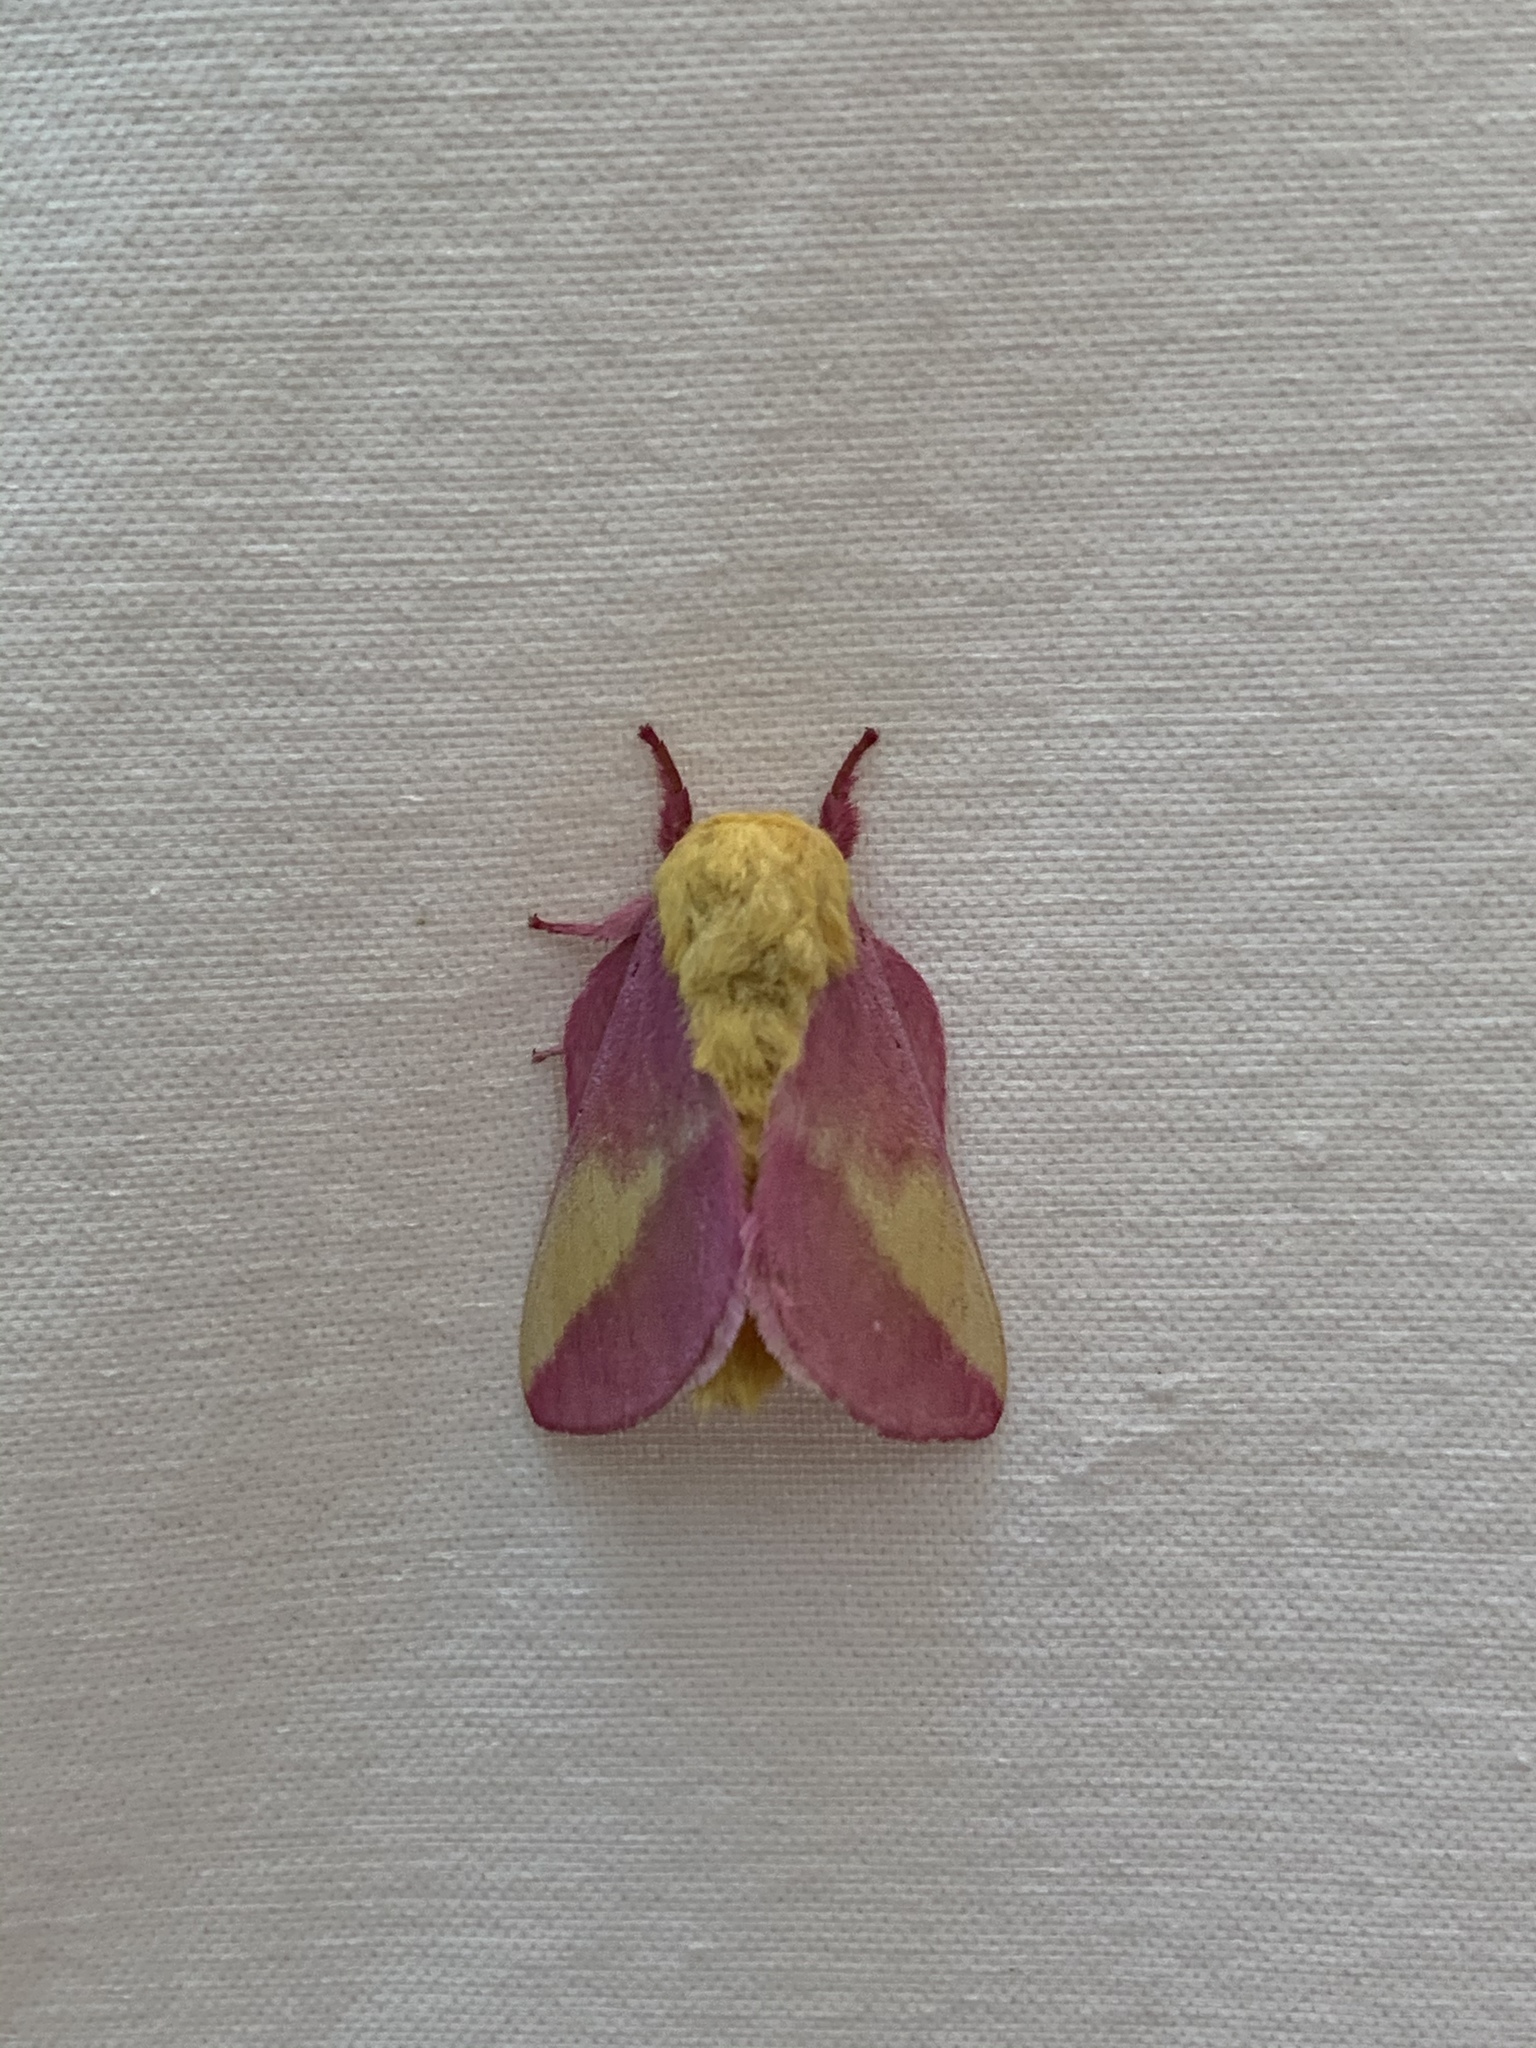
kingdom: Animalia
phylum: Arthropoda
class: Insecta
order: Lepidoptera
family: Saturniidae
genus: Dryocampa
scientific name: Dryocampa rubicunda
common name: Rosy maple moth
